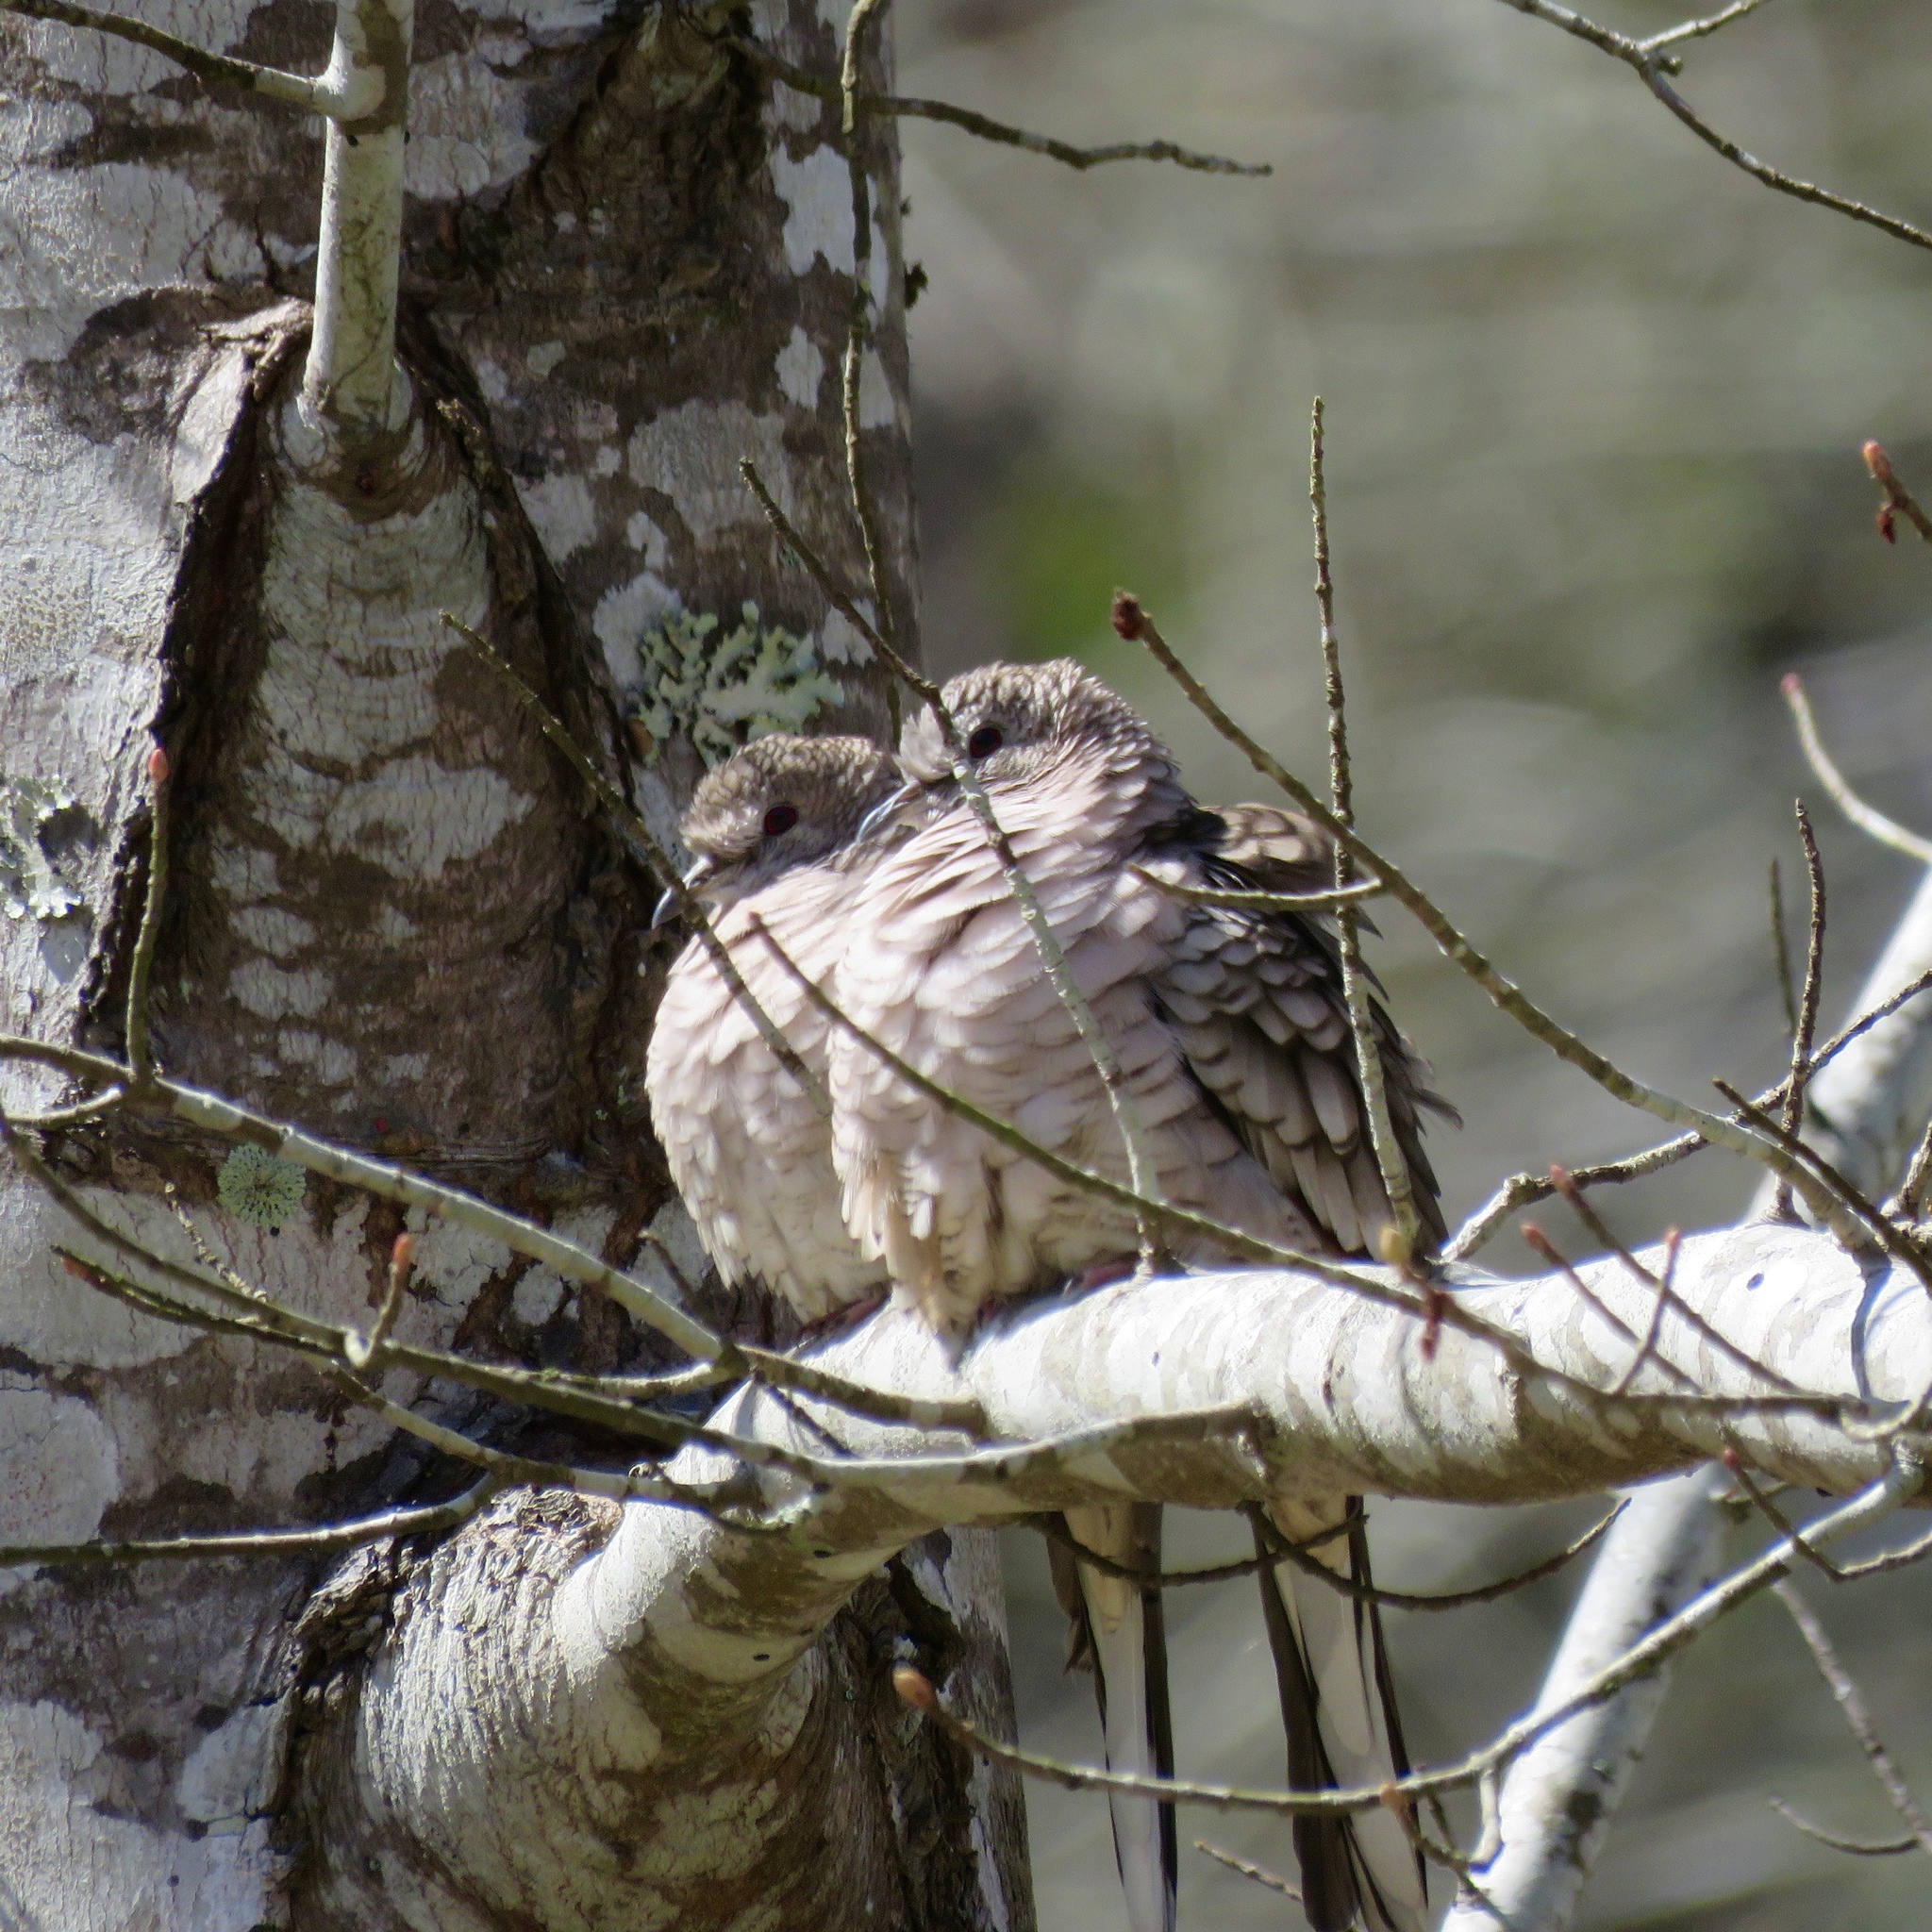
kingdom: Animalia
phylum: Chordata
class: Aves
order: Columbiformes
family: Columbidae
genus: Columbina
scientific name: Columbina inca
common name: Inca dove
